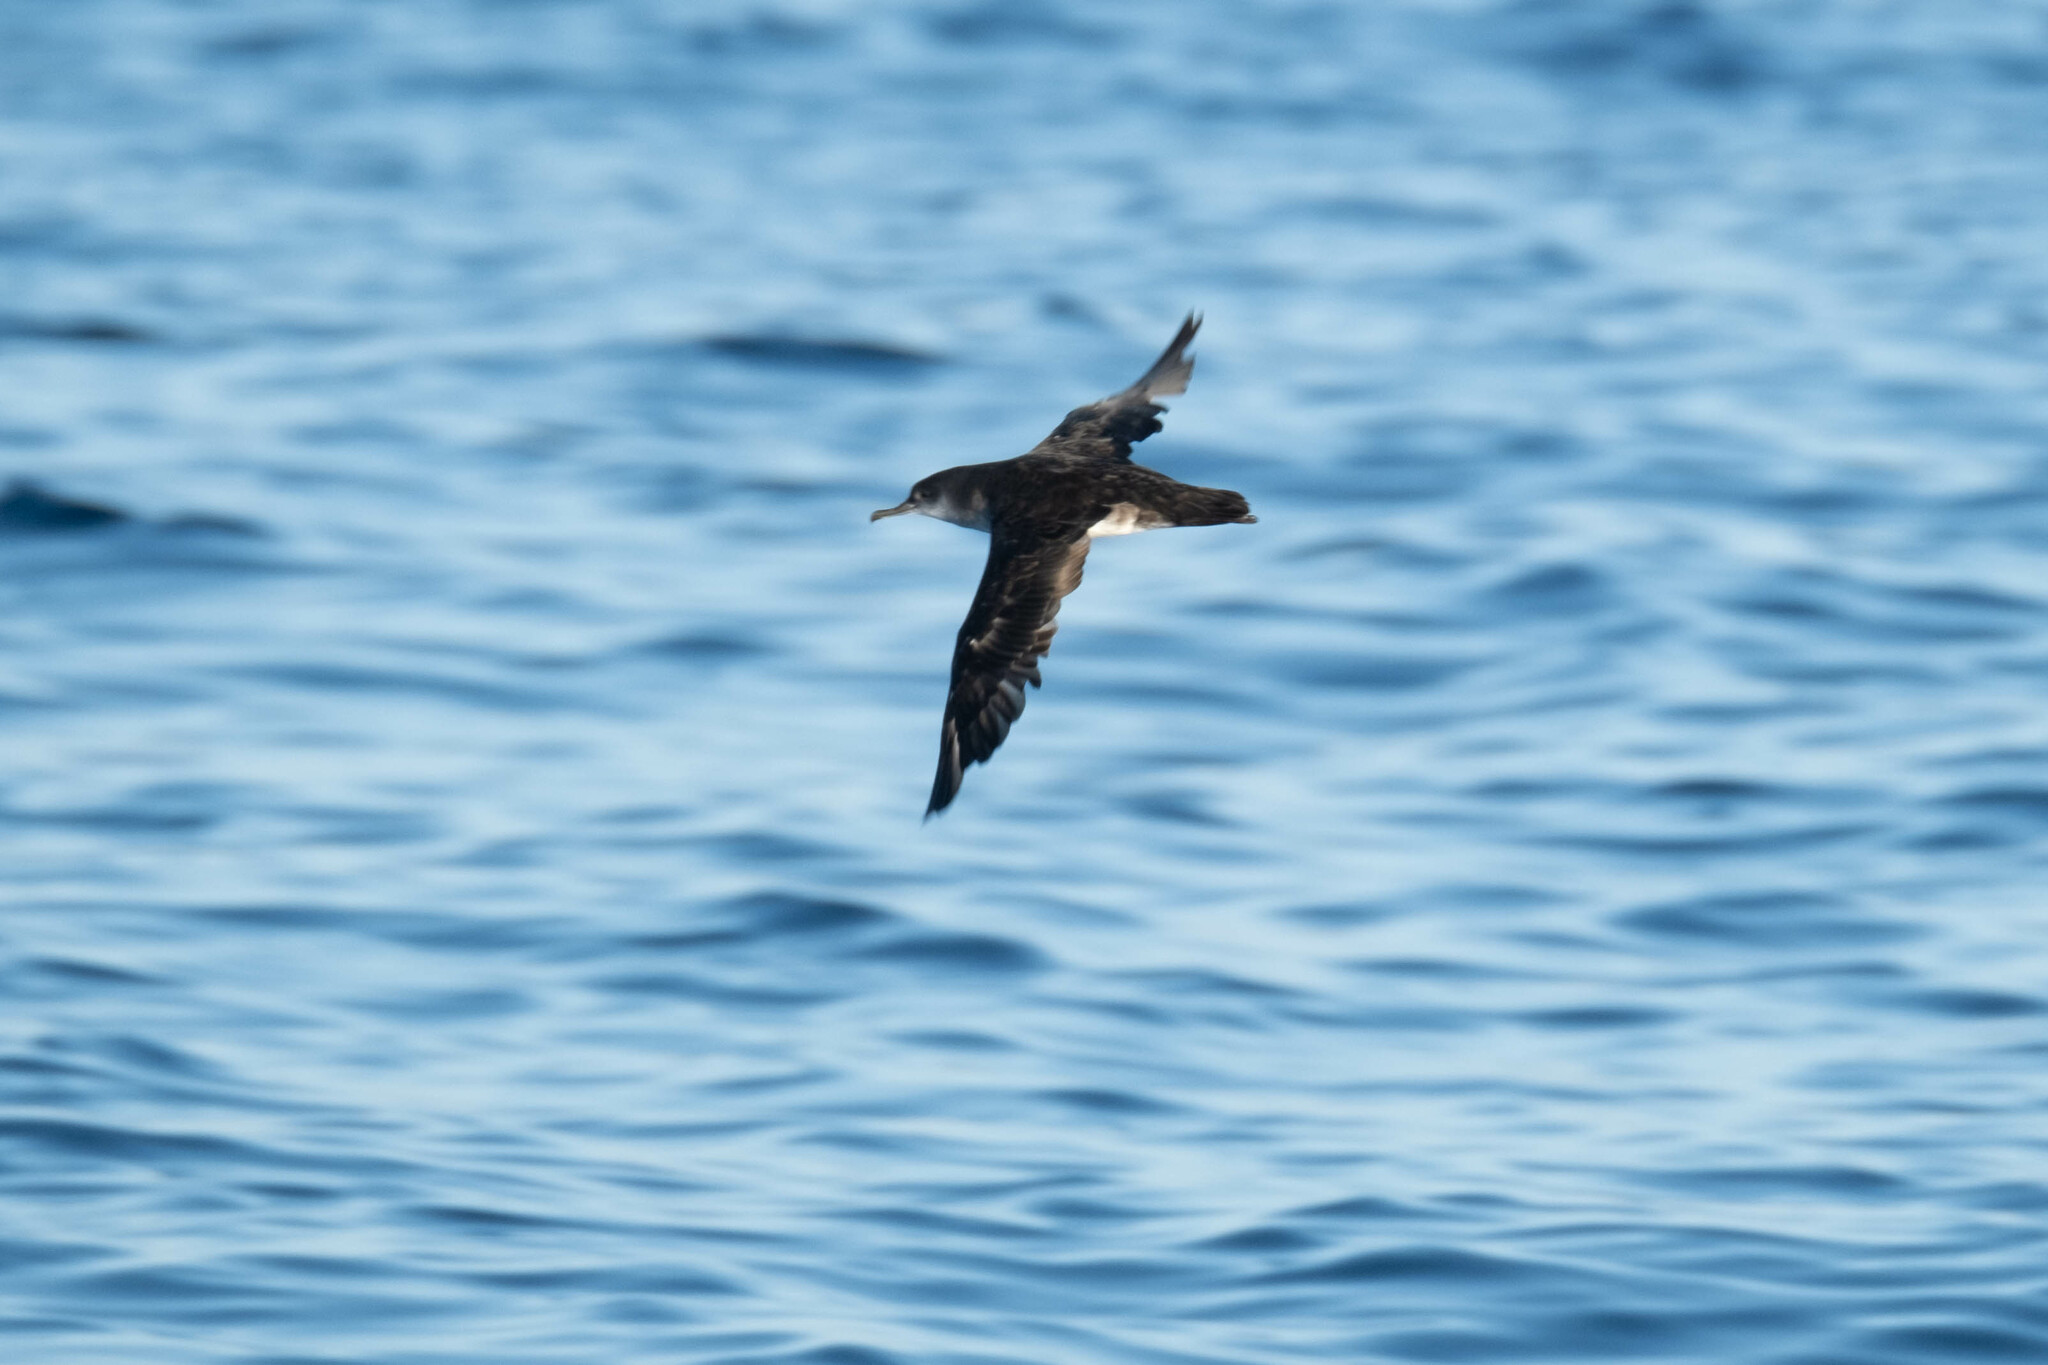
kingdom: Animalia
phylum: Chordata
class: Aves
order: Procellariiformes
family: Procellariidae
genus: Puffinus
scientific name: Puffinus opisthomelas
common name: Black-vented shearwater
